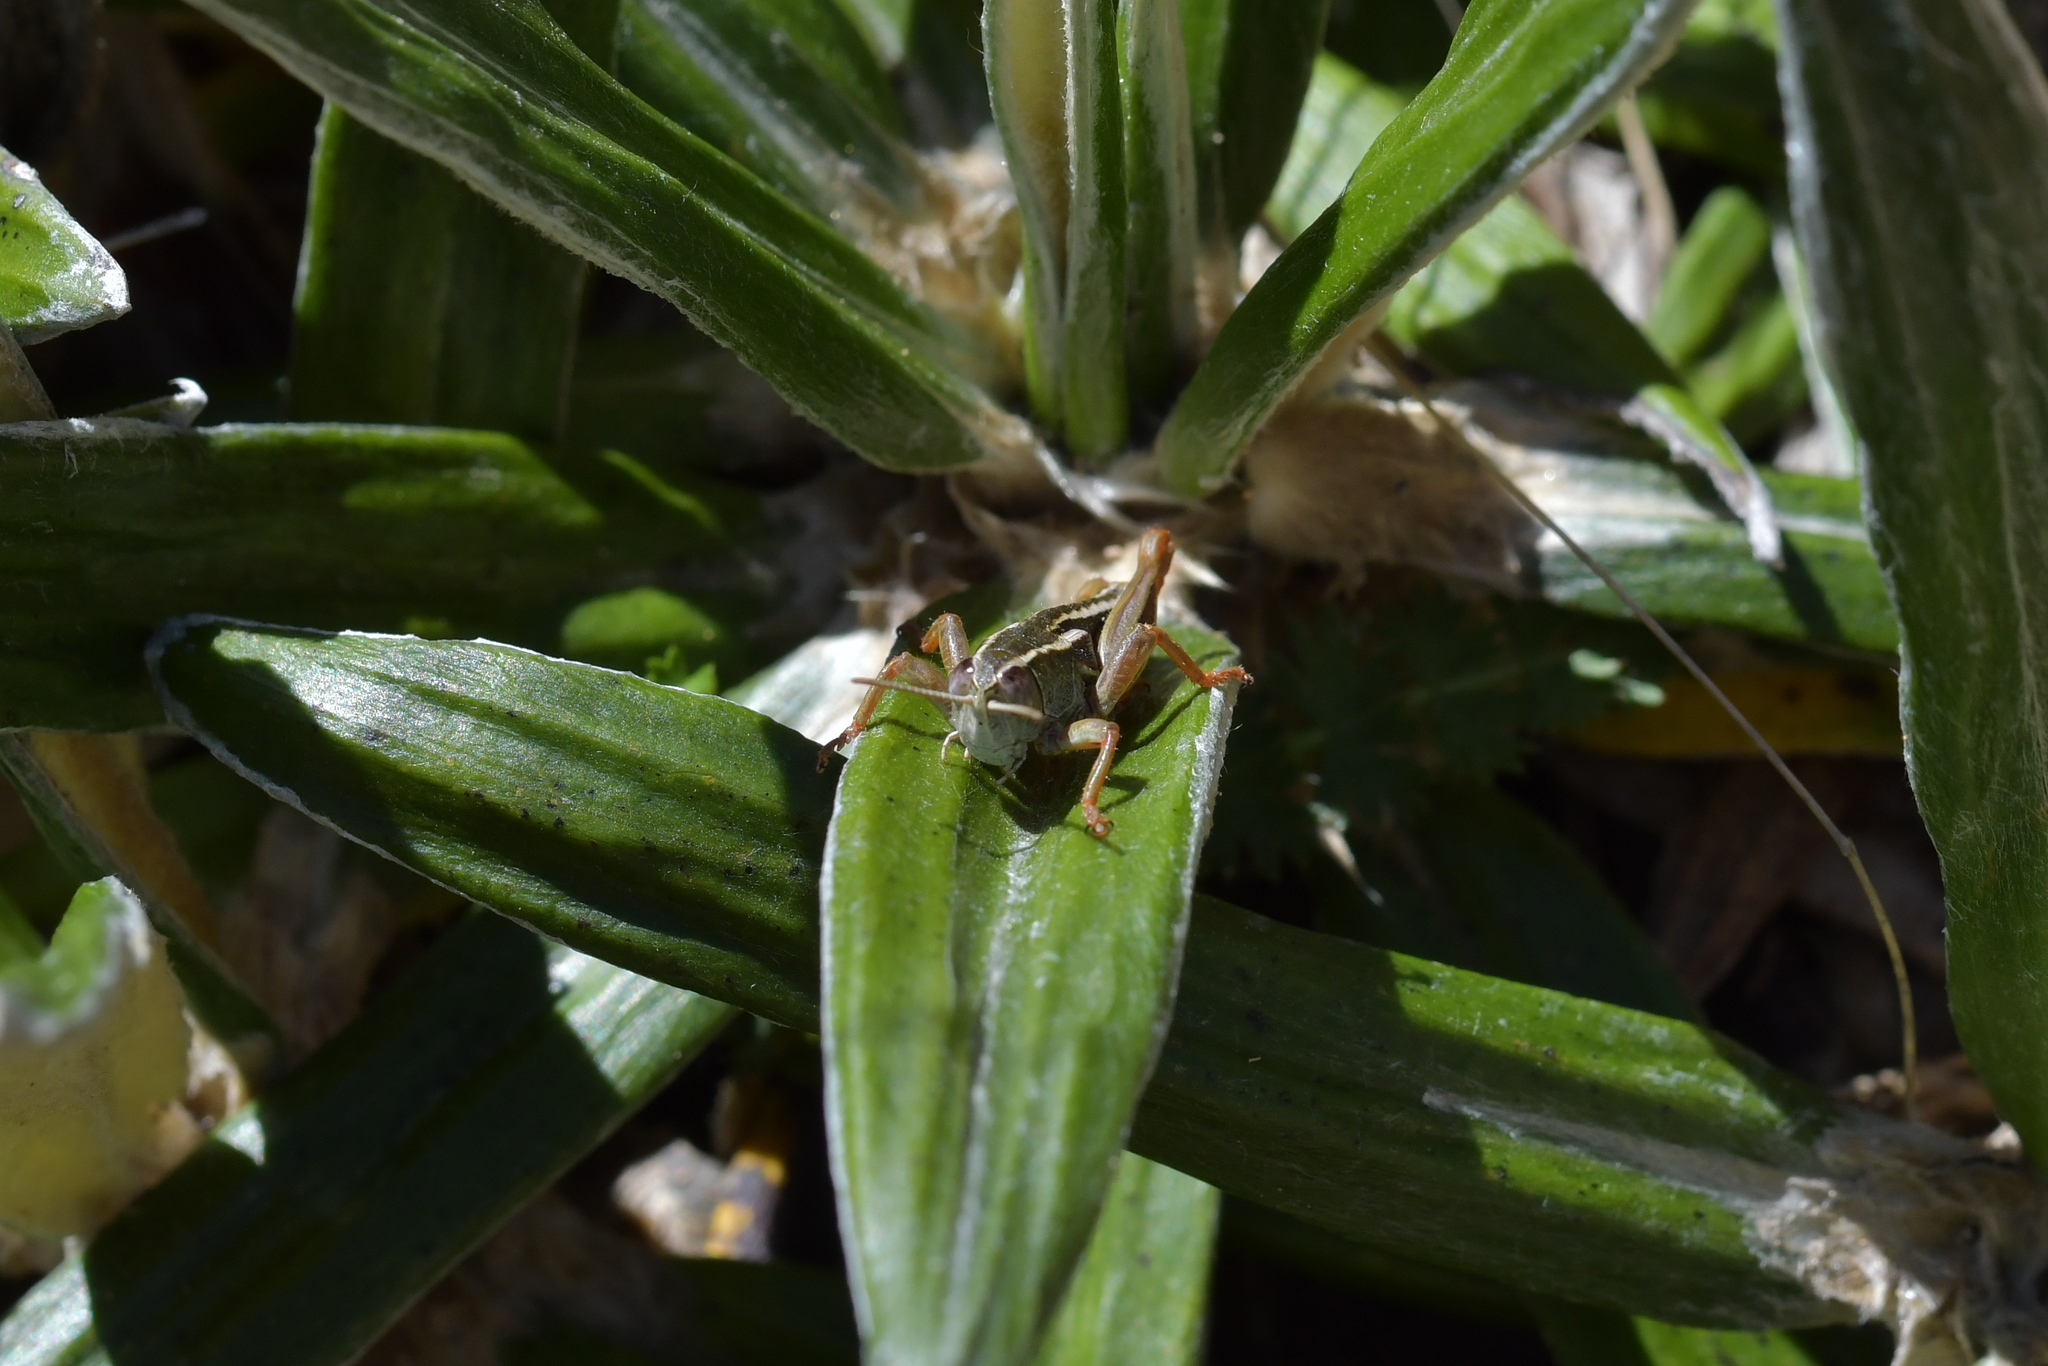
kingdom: Animalia
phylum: Arthropoda
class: Insecta
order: Orthoptera
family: Acrididae
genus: Sigaus
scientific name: Sigaus
